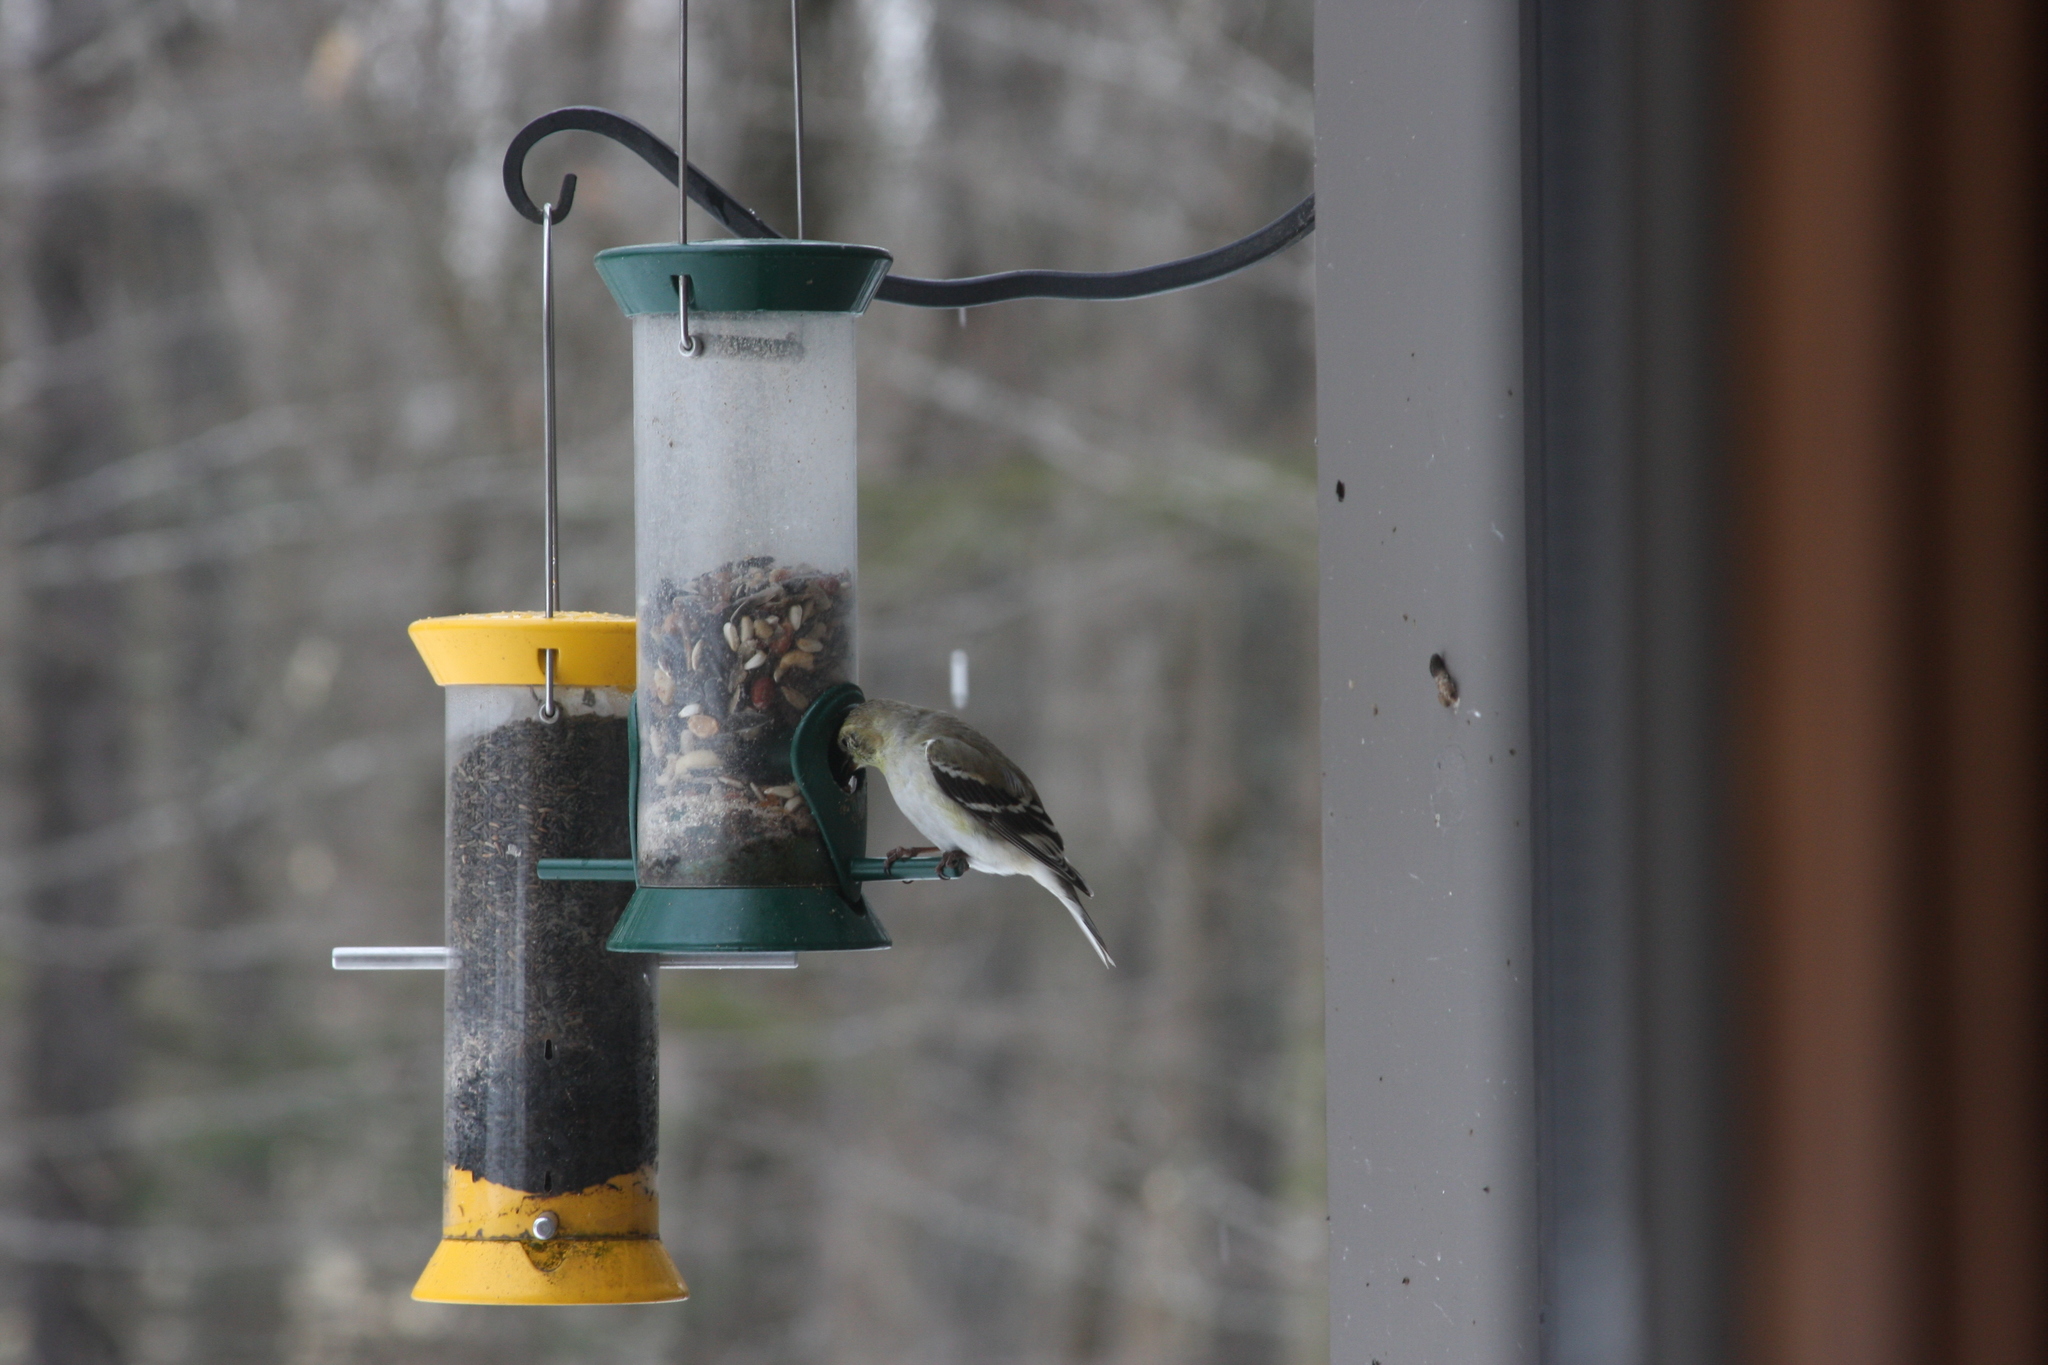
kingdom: Animalia
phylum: Chordata
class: Aves
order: Passeriformes
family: Fringillidae
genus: Spinus
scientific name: Spinus tristis
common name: American goldfinch
